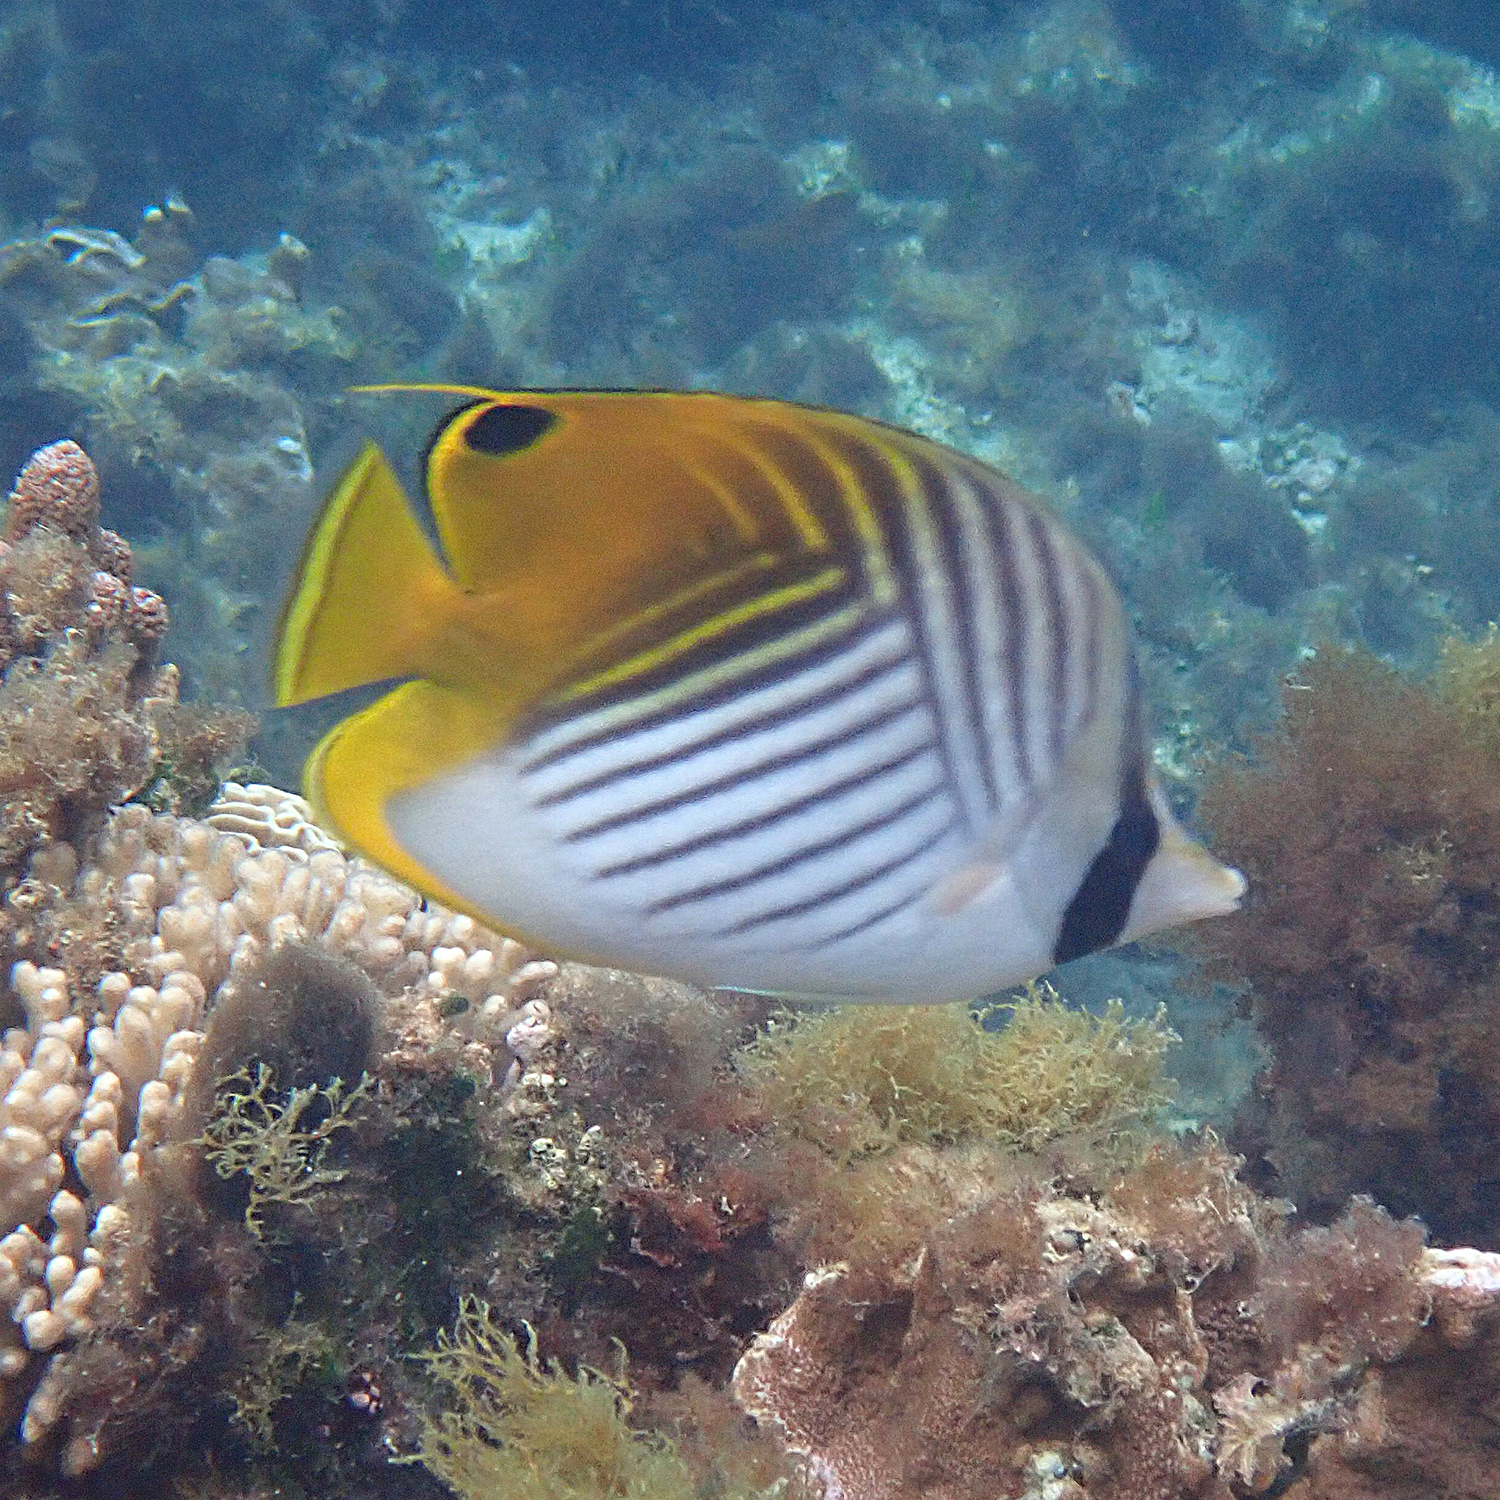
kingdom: Animalia
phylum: Chordata
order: Perciformes
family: Chaetodontidae
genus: Chaetodon
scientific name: Chaetodon auriga
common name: Threadfin butterflyfish
